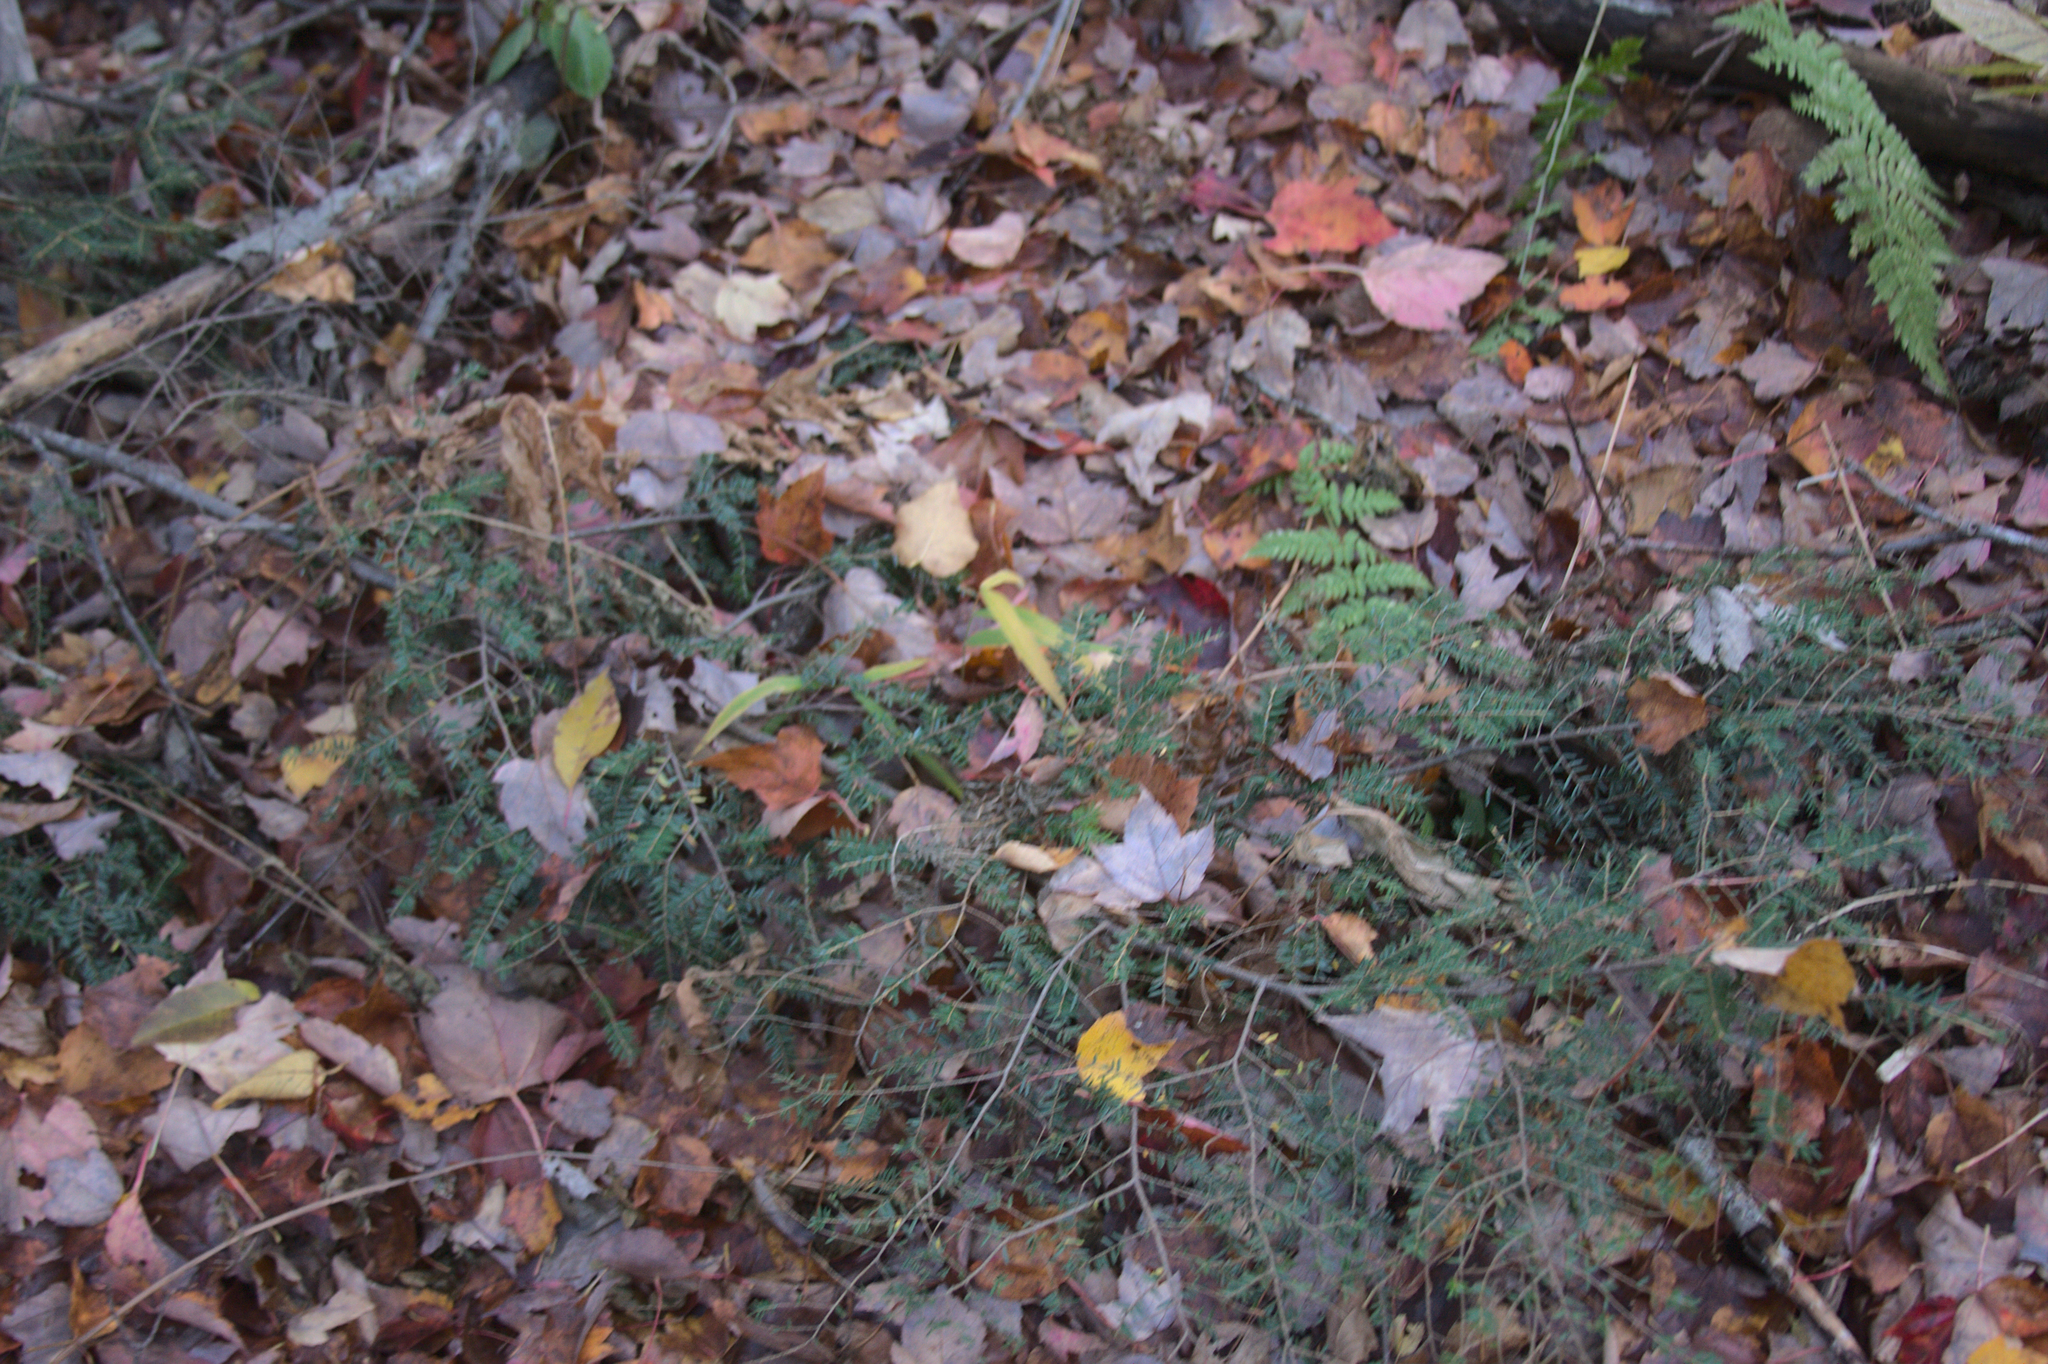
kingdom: Plantae
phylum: Tracheophyta
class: Pinopsida
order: Pinales
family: Pinaceae
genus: Tsuga
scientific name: Tsuga canadensis
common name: Eastern hemlock
